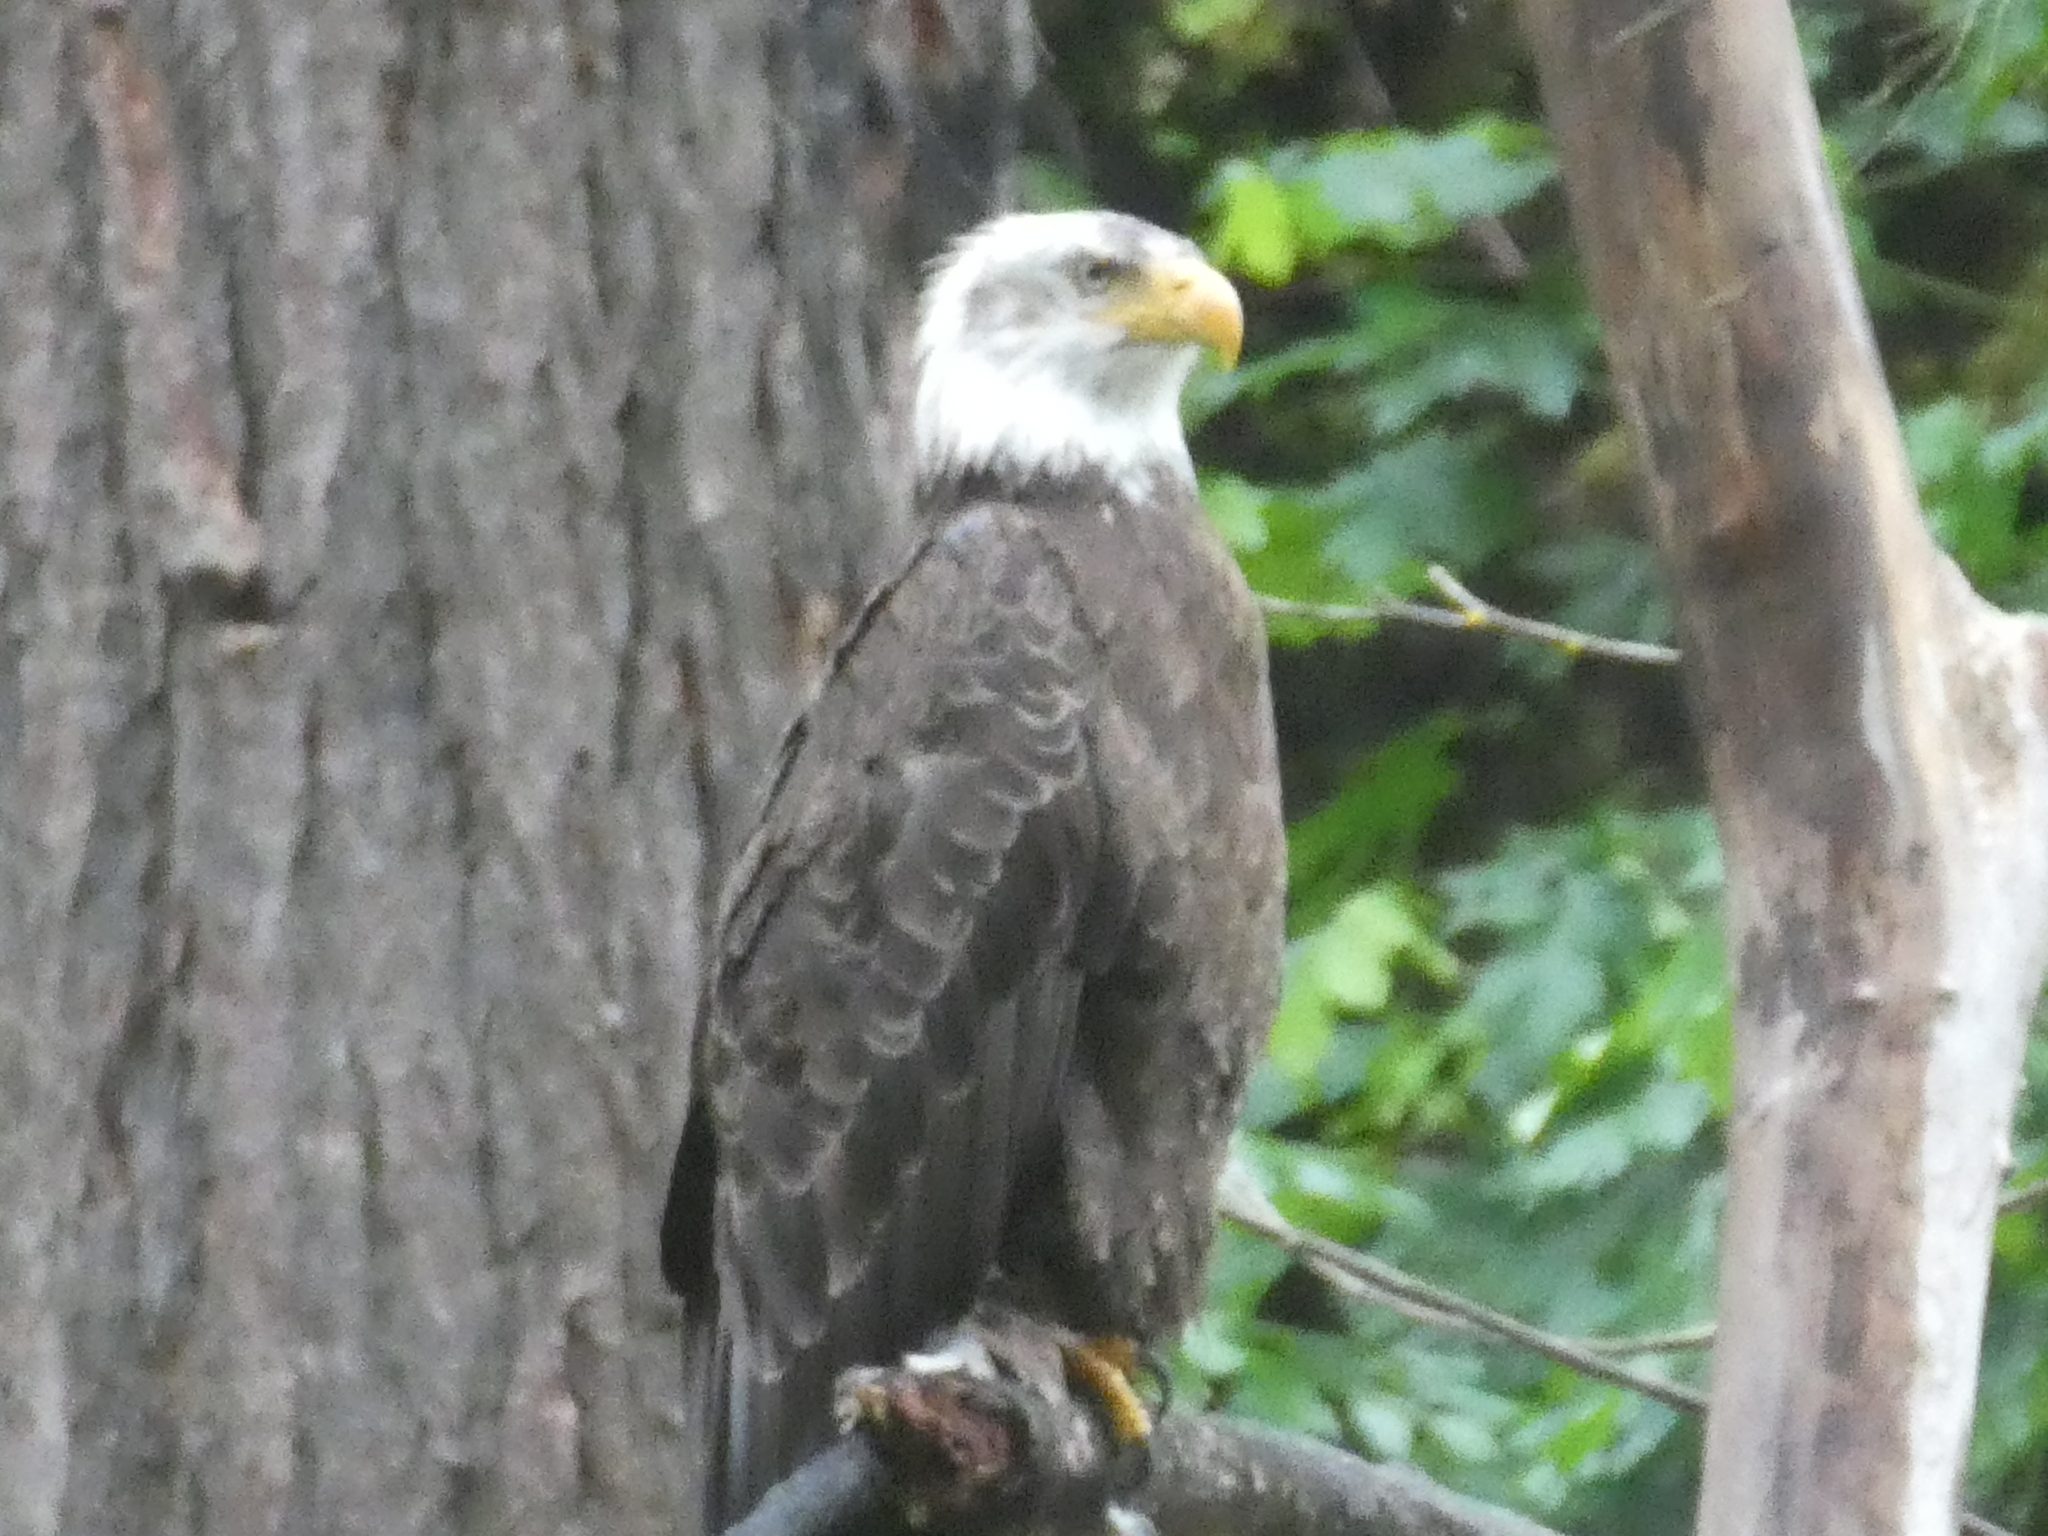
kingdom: Animalia
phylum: Chordata
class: Aves
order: Accipitriformes
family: Accipitridae
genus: Haliaeetus
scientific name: Haliaeetus leucocephalus
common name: Bald eagle
